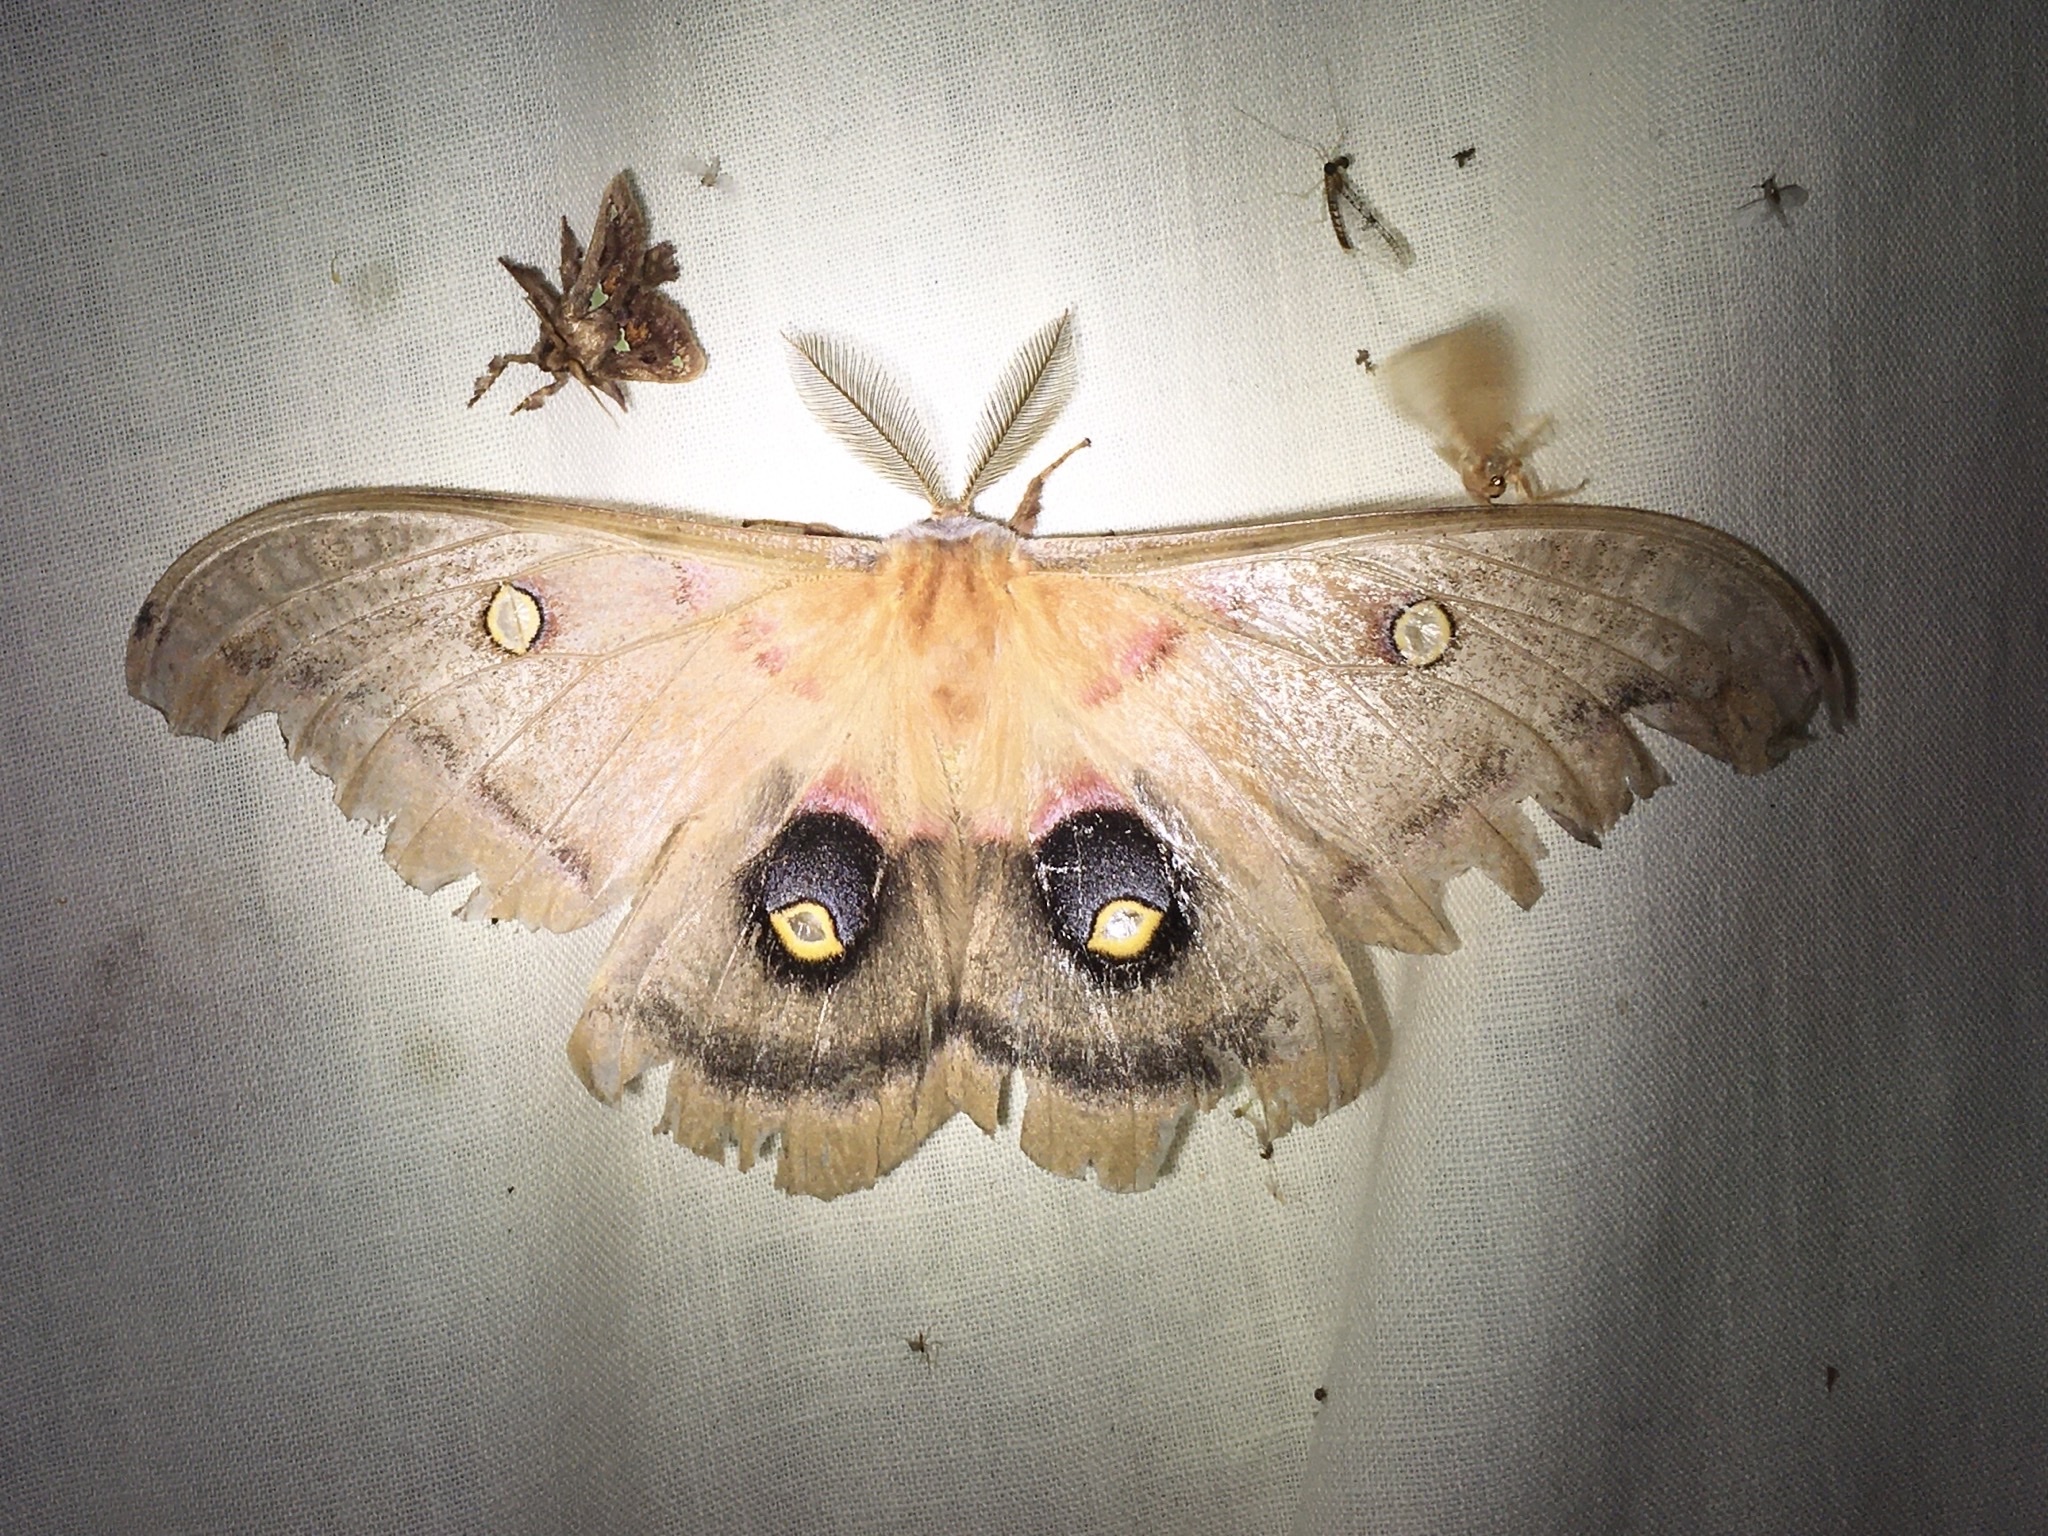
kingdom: Animalia
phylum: Arthropoda
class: Insecta
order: Lepidoptera
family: Saturniidae
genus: Antheraea
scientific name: Antheraea polyphemus
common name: Polyphemus moth
